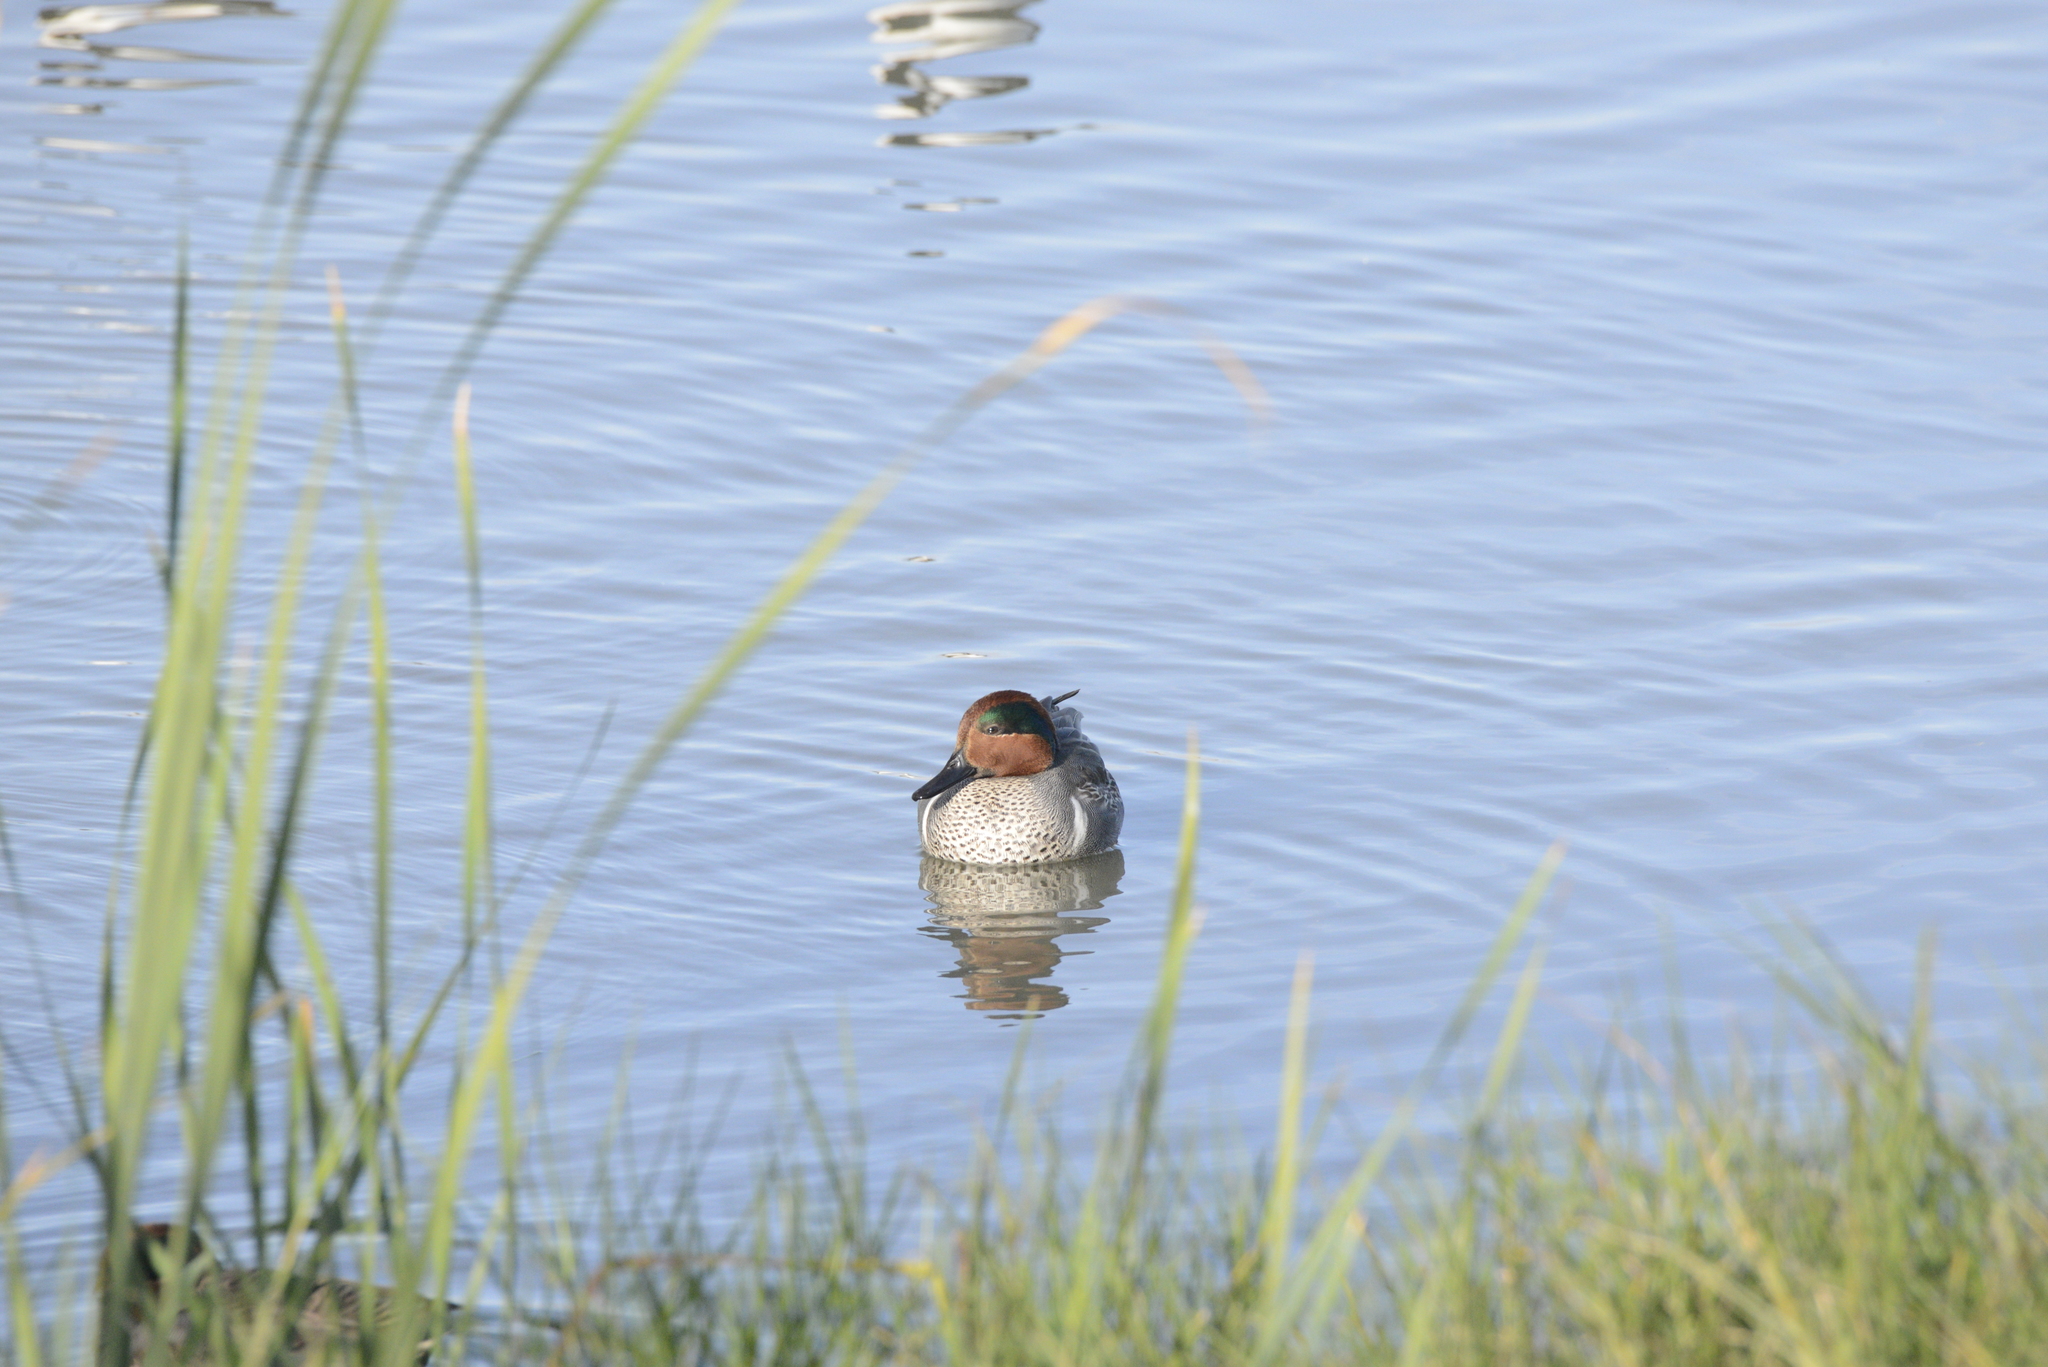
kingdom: Animalia
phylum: Chordata
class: Aves
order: Anseriformes
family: Anatidae
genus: Anas
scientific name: Anas crecca
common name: Eurasian teal
